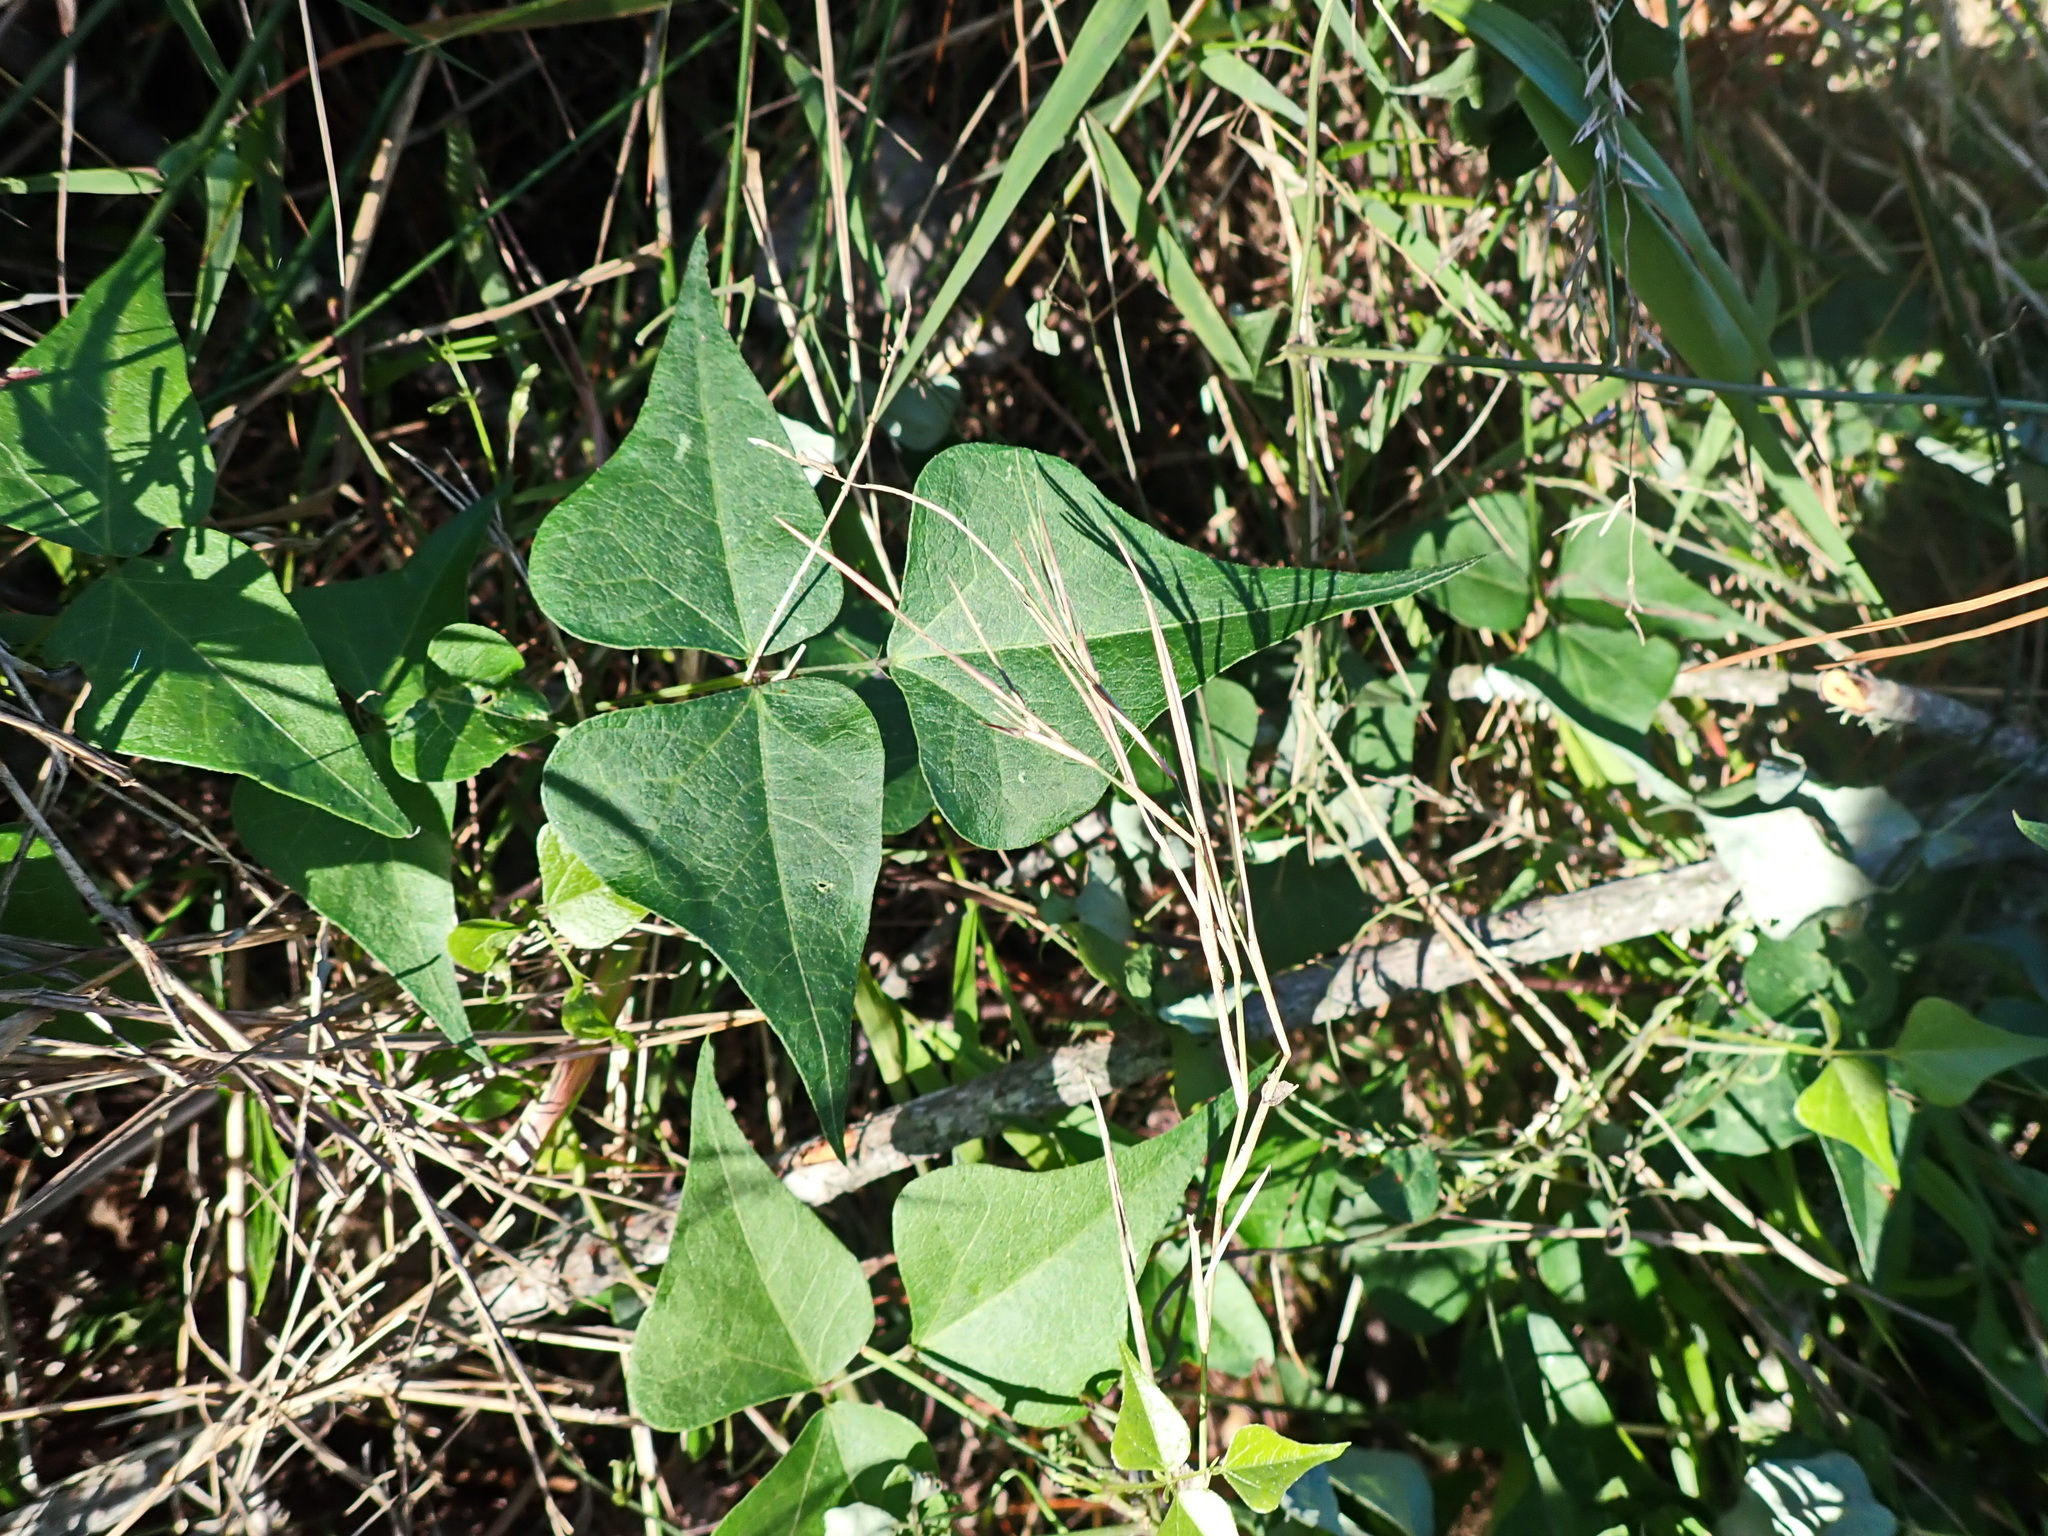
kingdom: Plantae
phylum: Tracheophyta
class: Magnoliopsida
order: Fabales
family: Fabaceae
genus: Dipogon
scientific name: Dipogon lignosus
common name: Okie bean
